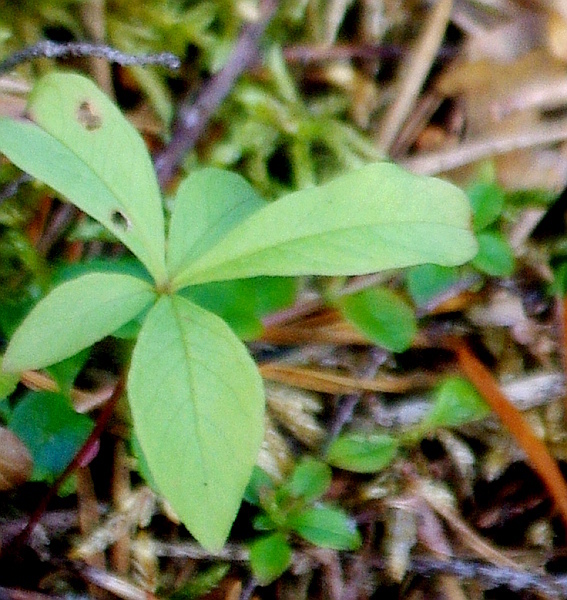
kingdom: Plantae
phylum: Tracheophyta
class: Magnoliopsida
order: Ericales
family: Primulaceae
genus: Lysimachia
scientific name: Lysimachia europaea
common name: Arctic starflower
